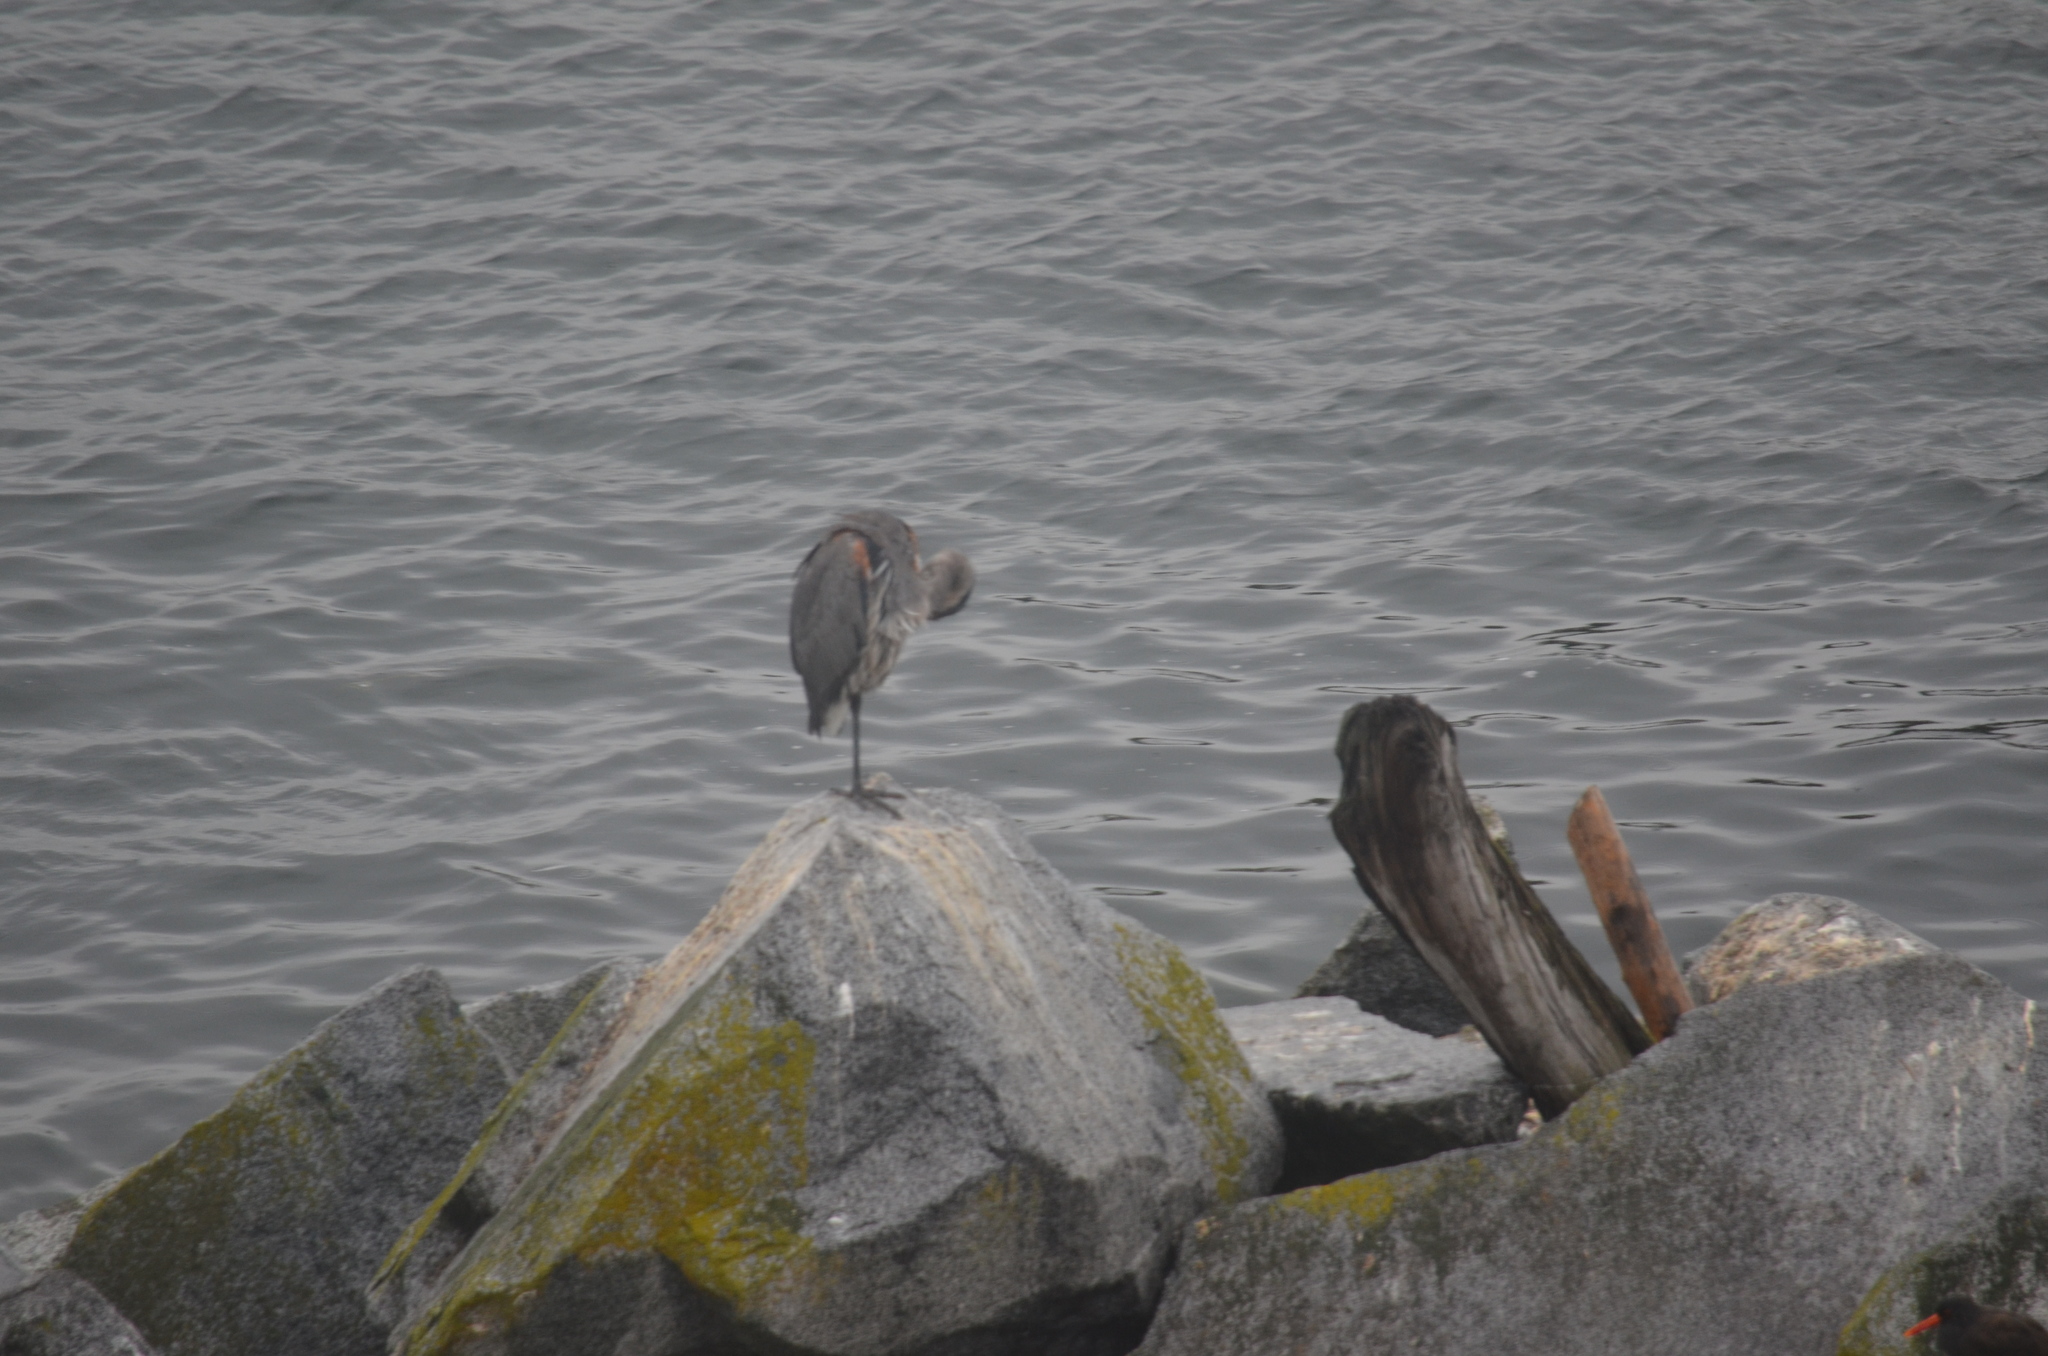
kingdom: Animalia
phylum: Chordata
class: Aves
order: Pelecaniformes
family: Ardeidae
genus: Ardea
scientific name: Ardea herodias
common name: Great blue heron
